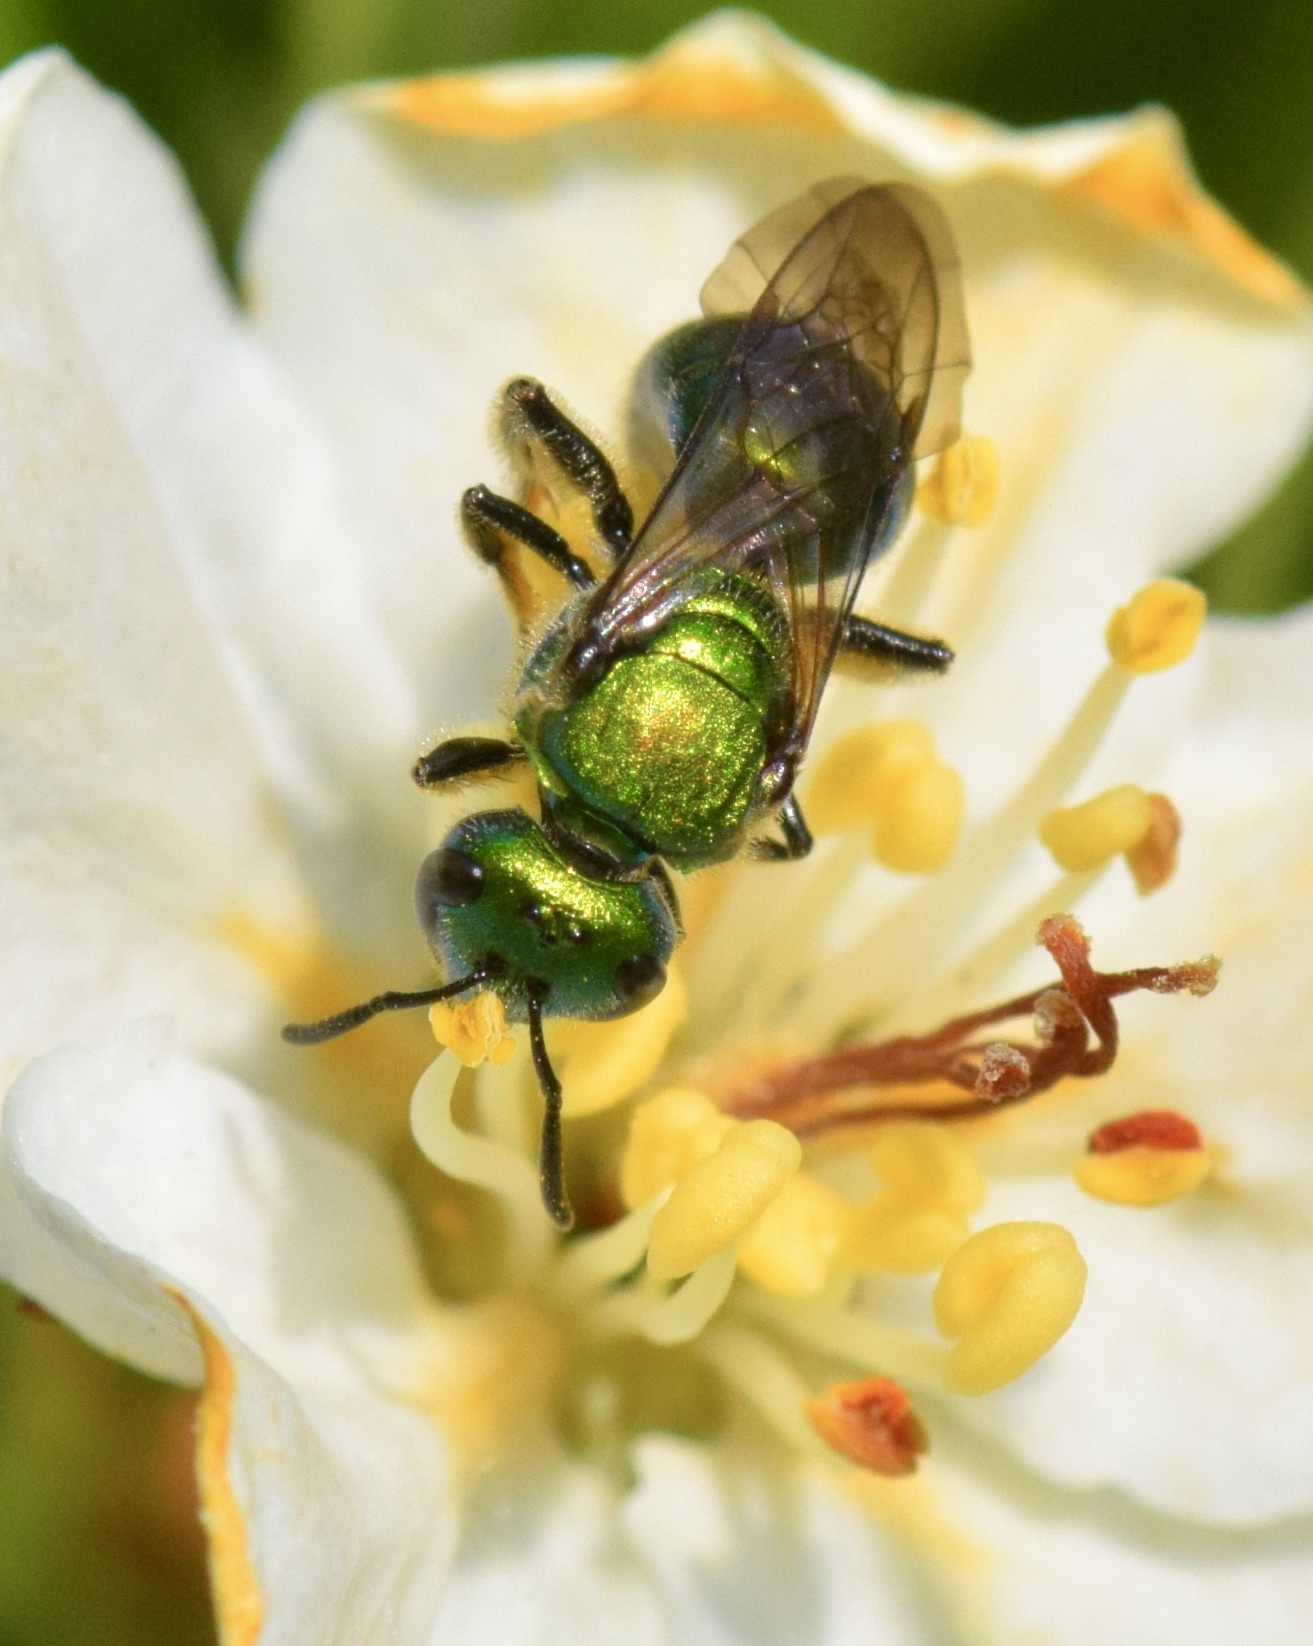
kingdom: Animalia
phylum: Arthropoda
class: Insecta
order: Hymenoptera
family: Halictidae
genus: Augochlora
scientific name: Augochlora pura
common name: Pure green sweat bee
